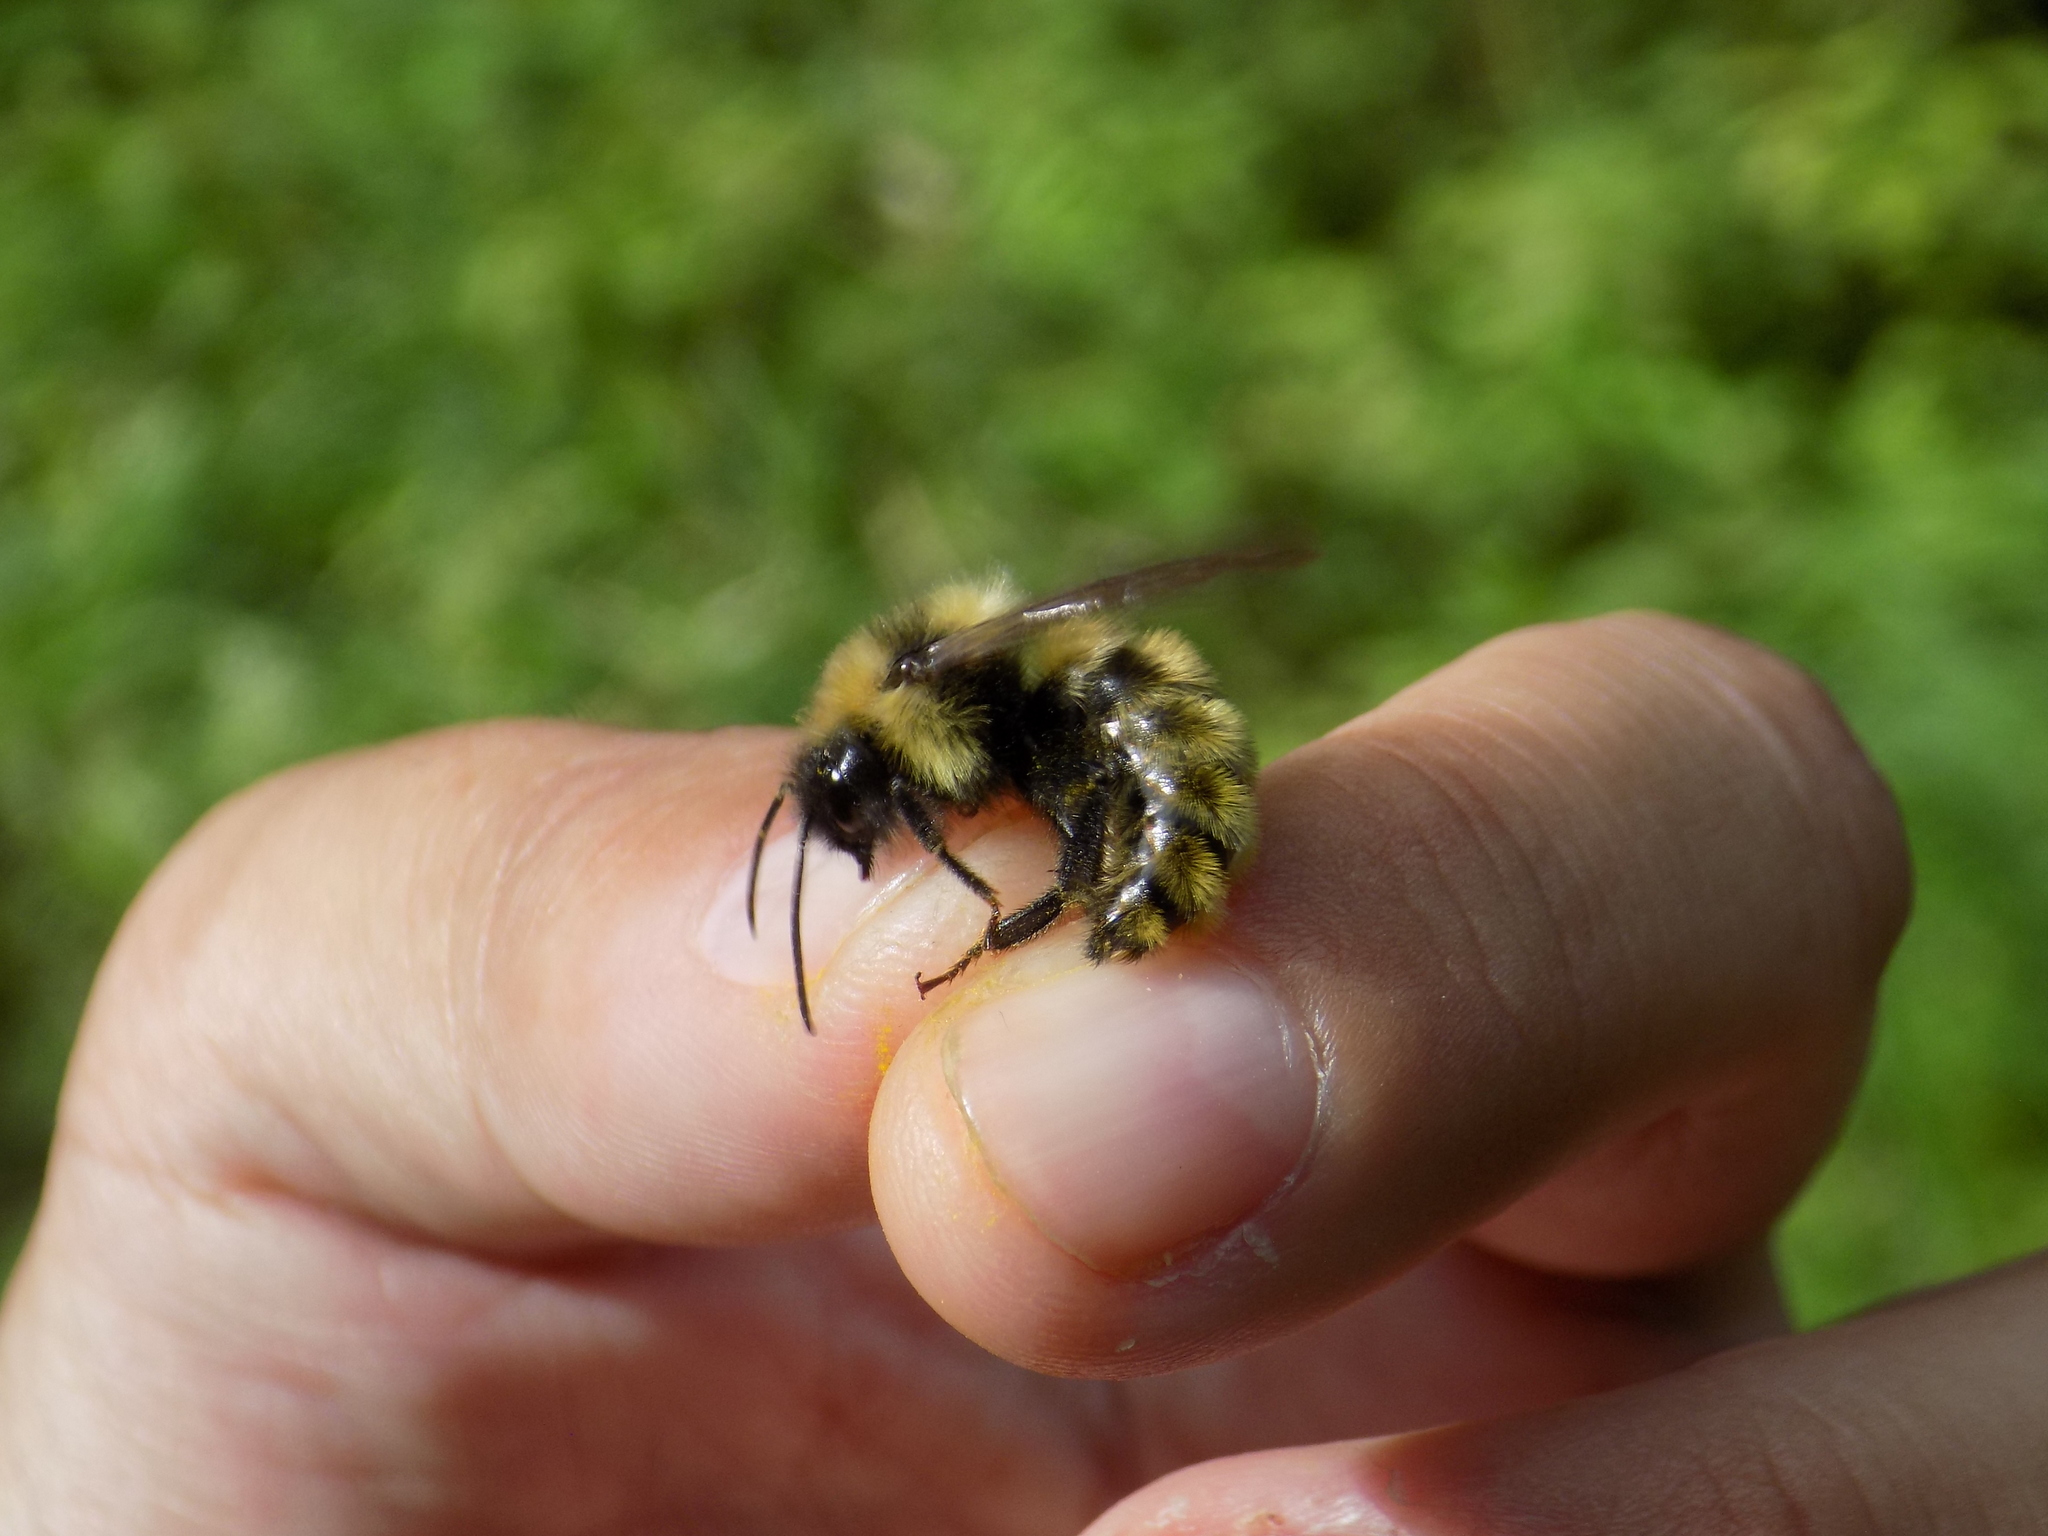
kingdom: Animalia
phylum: Arthropoda
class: Insecta
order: Hymenoptera
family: Apidae
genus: Bombus
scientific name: Bombus campestris
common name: Field cuckoo-bee
